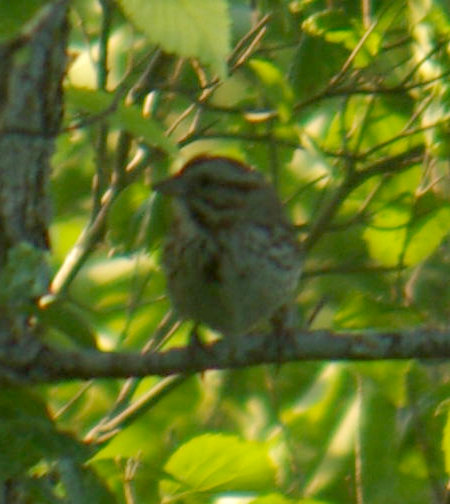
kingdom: Animalia
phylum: Chordata
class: Aves
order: Passeriformes
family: Passerellidae
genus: Melospiza
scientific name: Melospiza melodia
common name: Song sparrow
